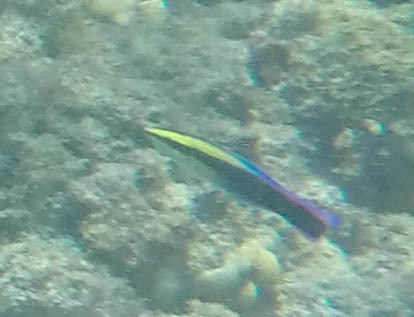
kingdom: Animalia
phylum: Chordata
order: Perciformes
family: Labridae
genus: Labroides
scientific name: Labroides phthirophagus
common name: Cleaner wrasse
